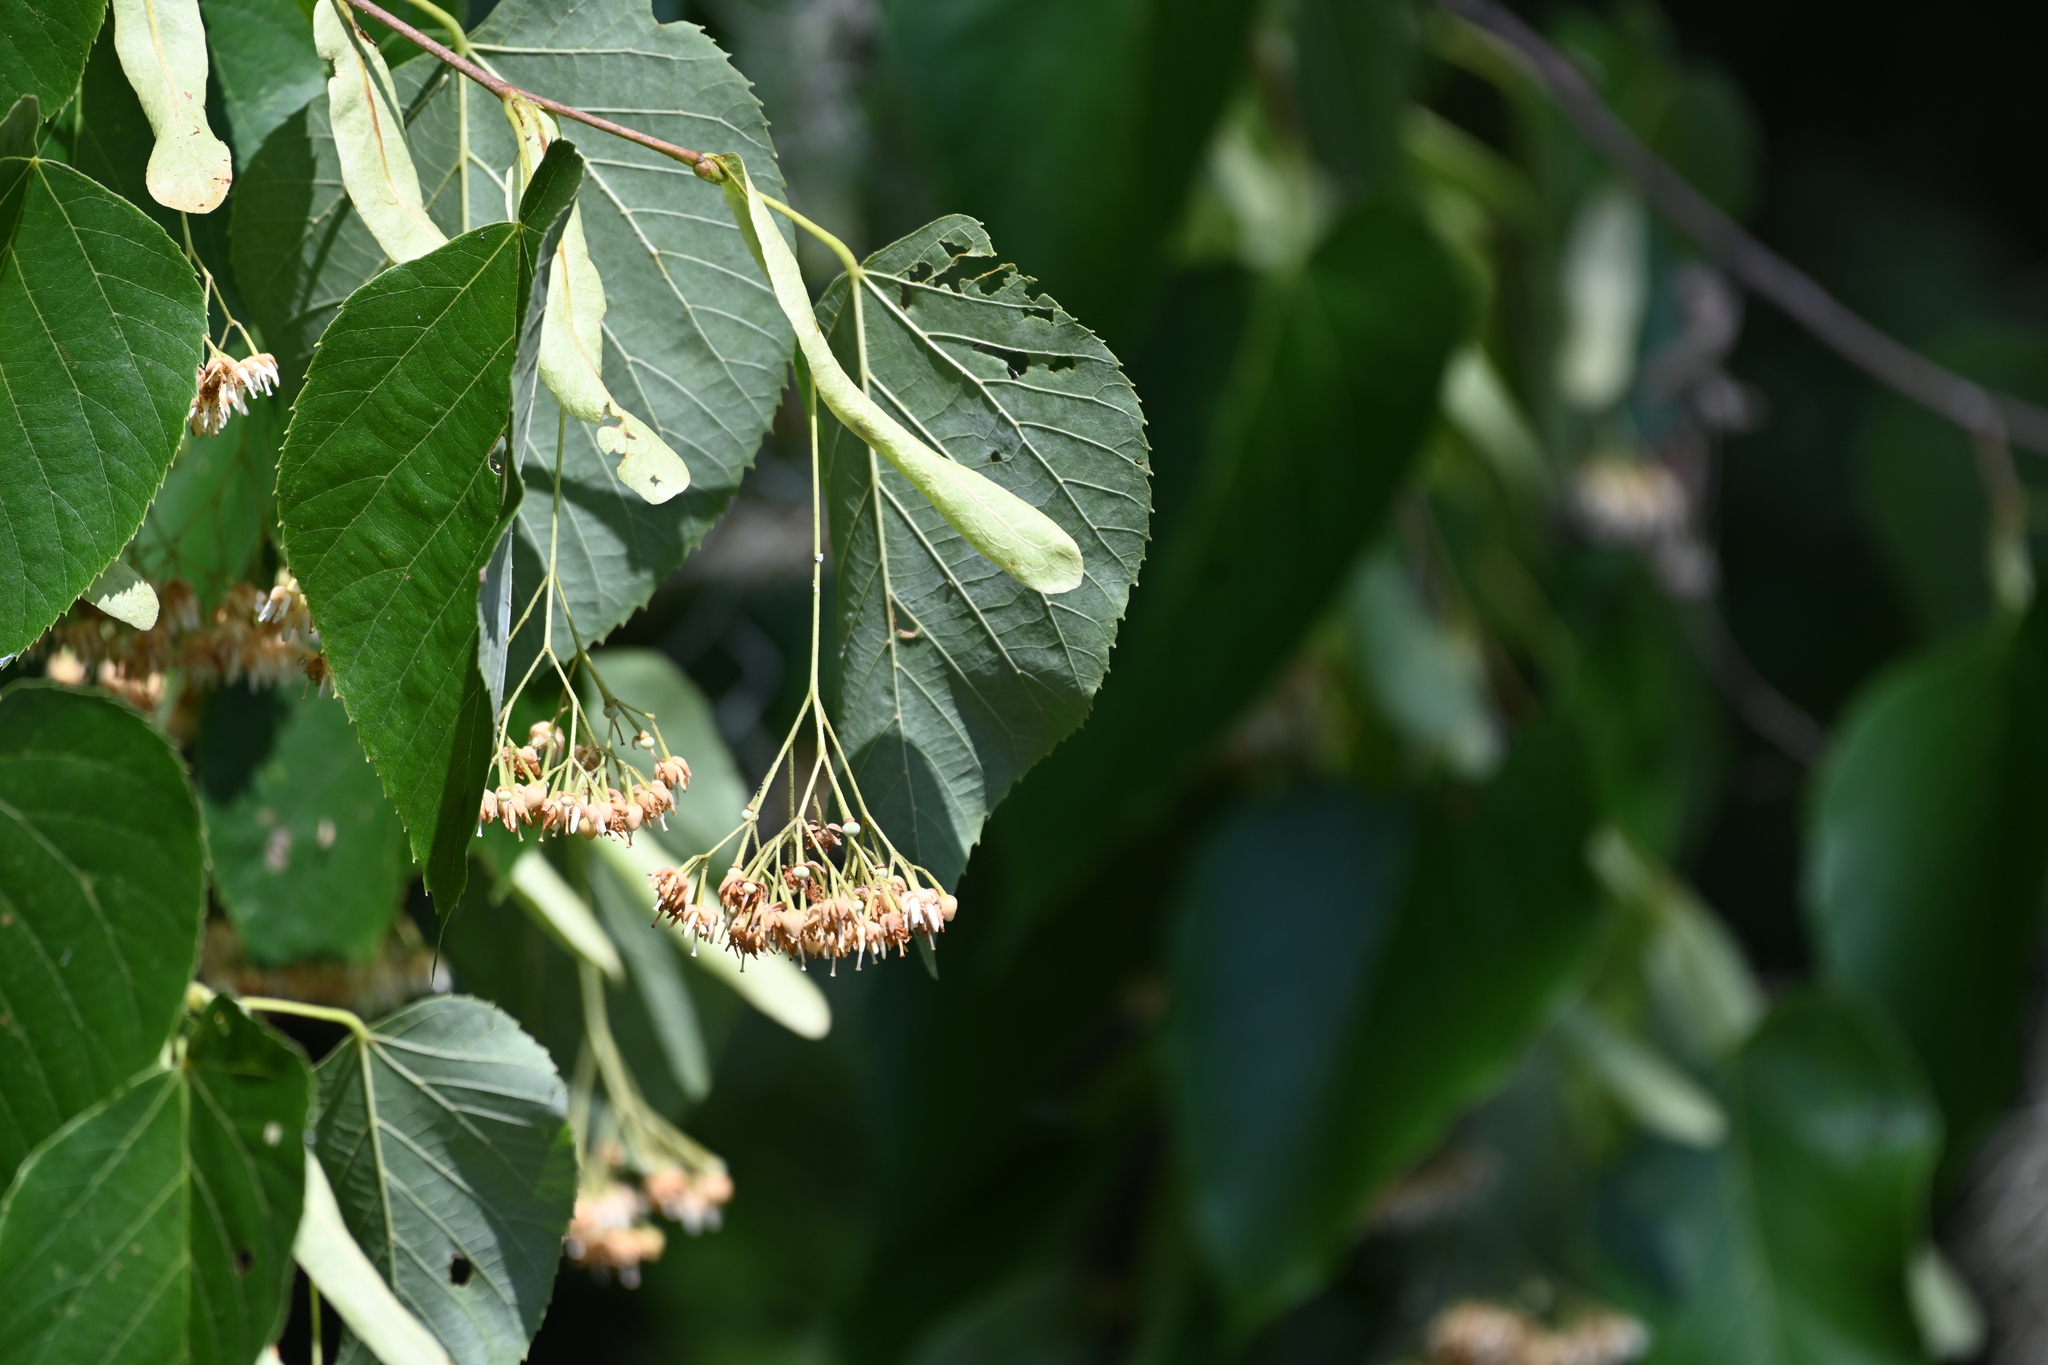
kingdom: Plantae
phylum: Tracheophyta
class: Magnoliopsida
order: Malvales
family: Malvaceae
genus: Tilia
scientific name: Tilia americana
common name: Basswood
